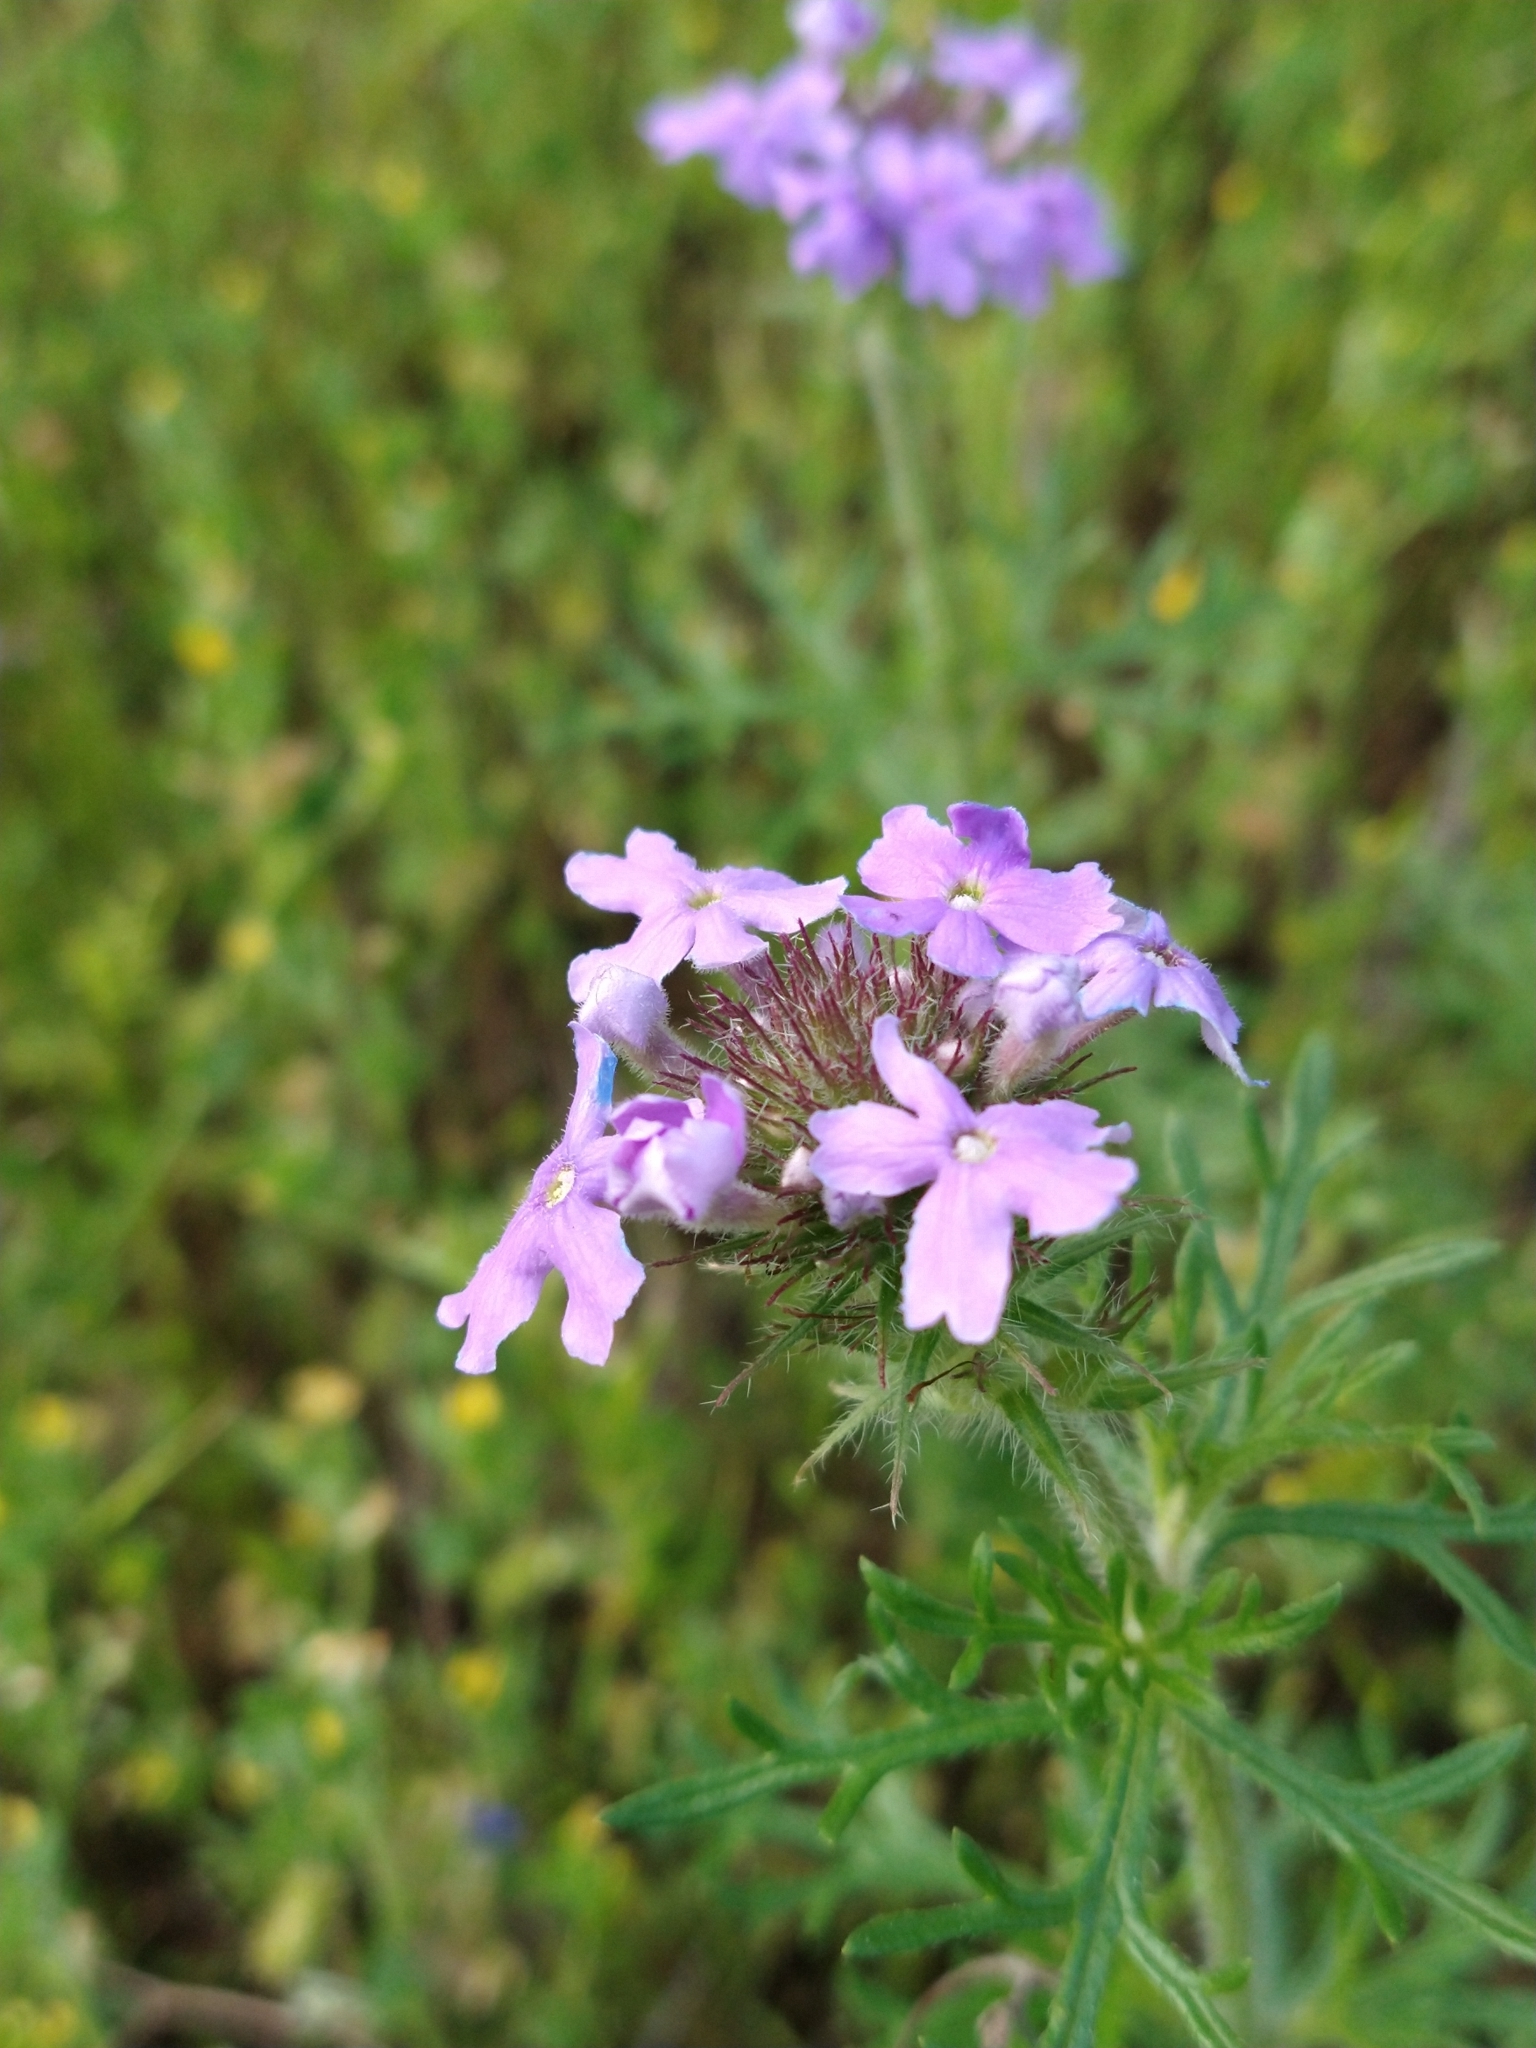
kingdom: Plantae
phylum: Tracheophyta
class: Magnoliopsida
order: Lamiales
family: Verbenaceae
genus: Verbena
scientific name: Verbena bipinnatifida
